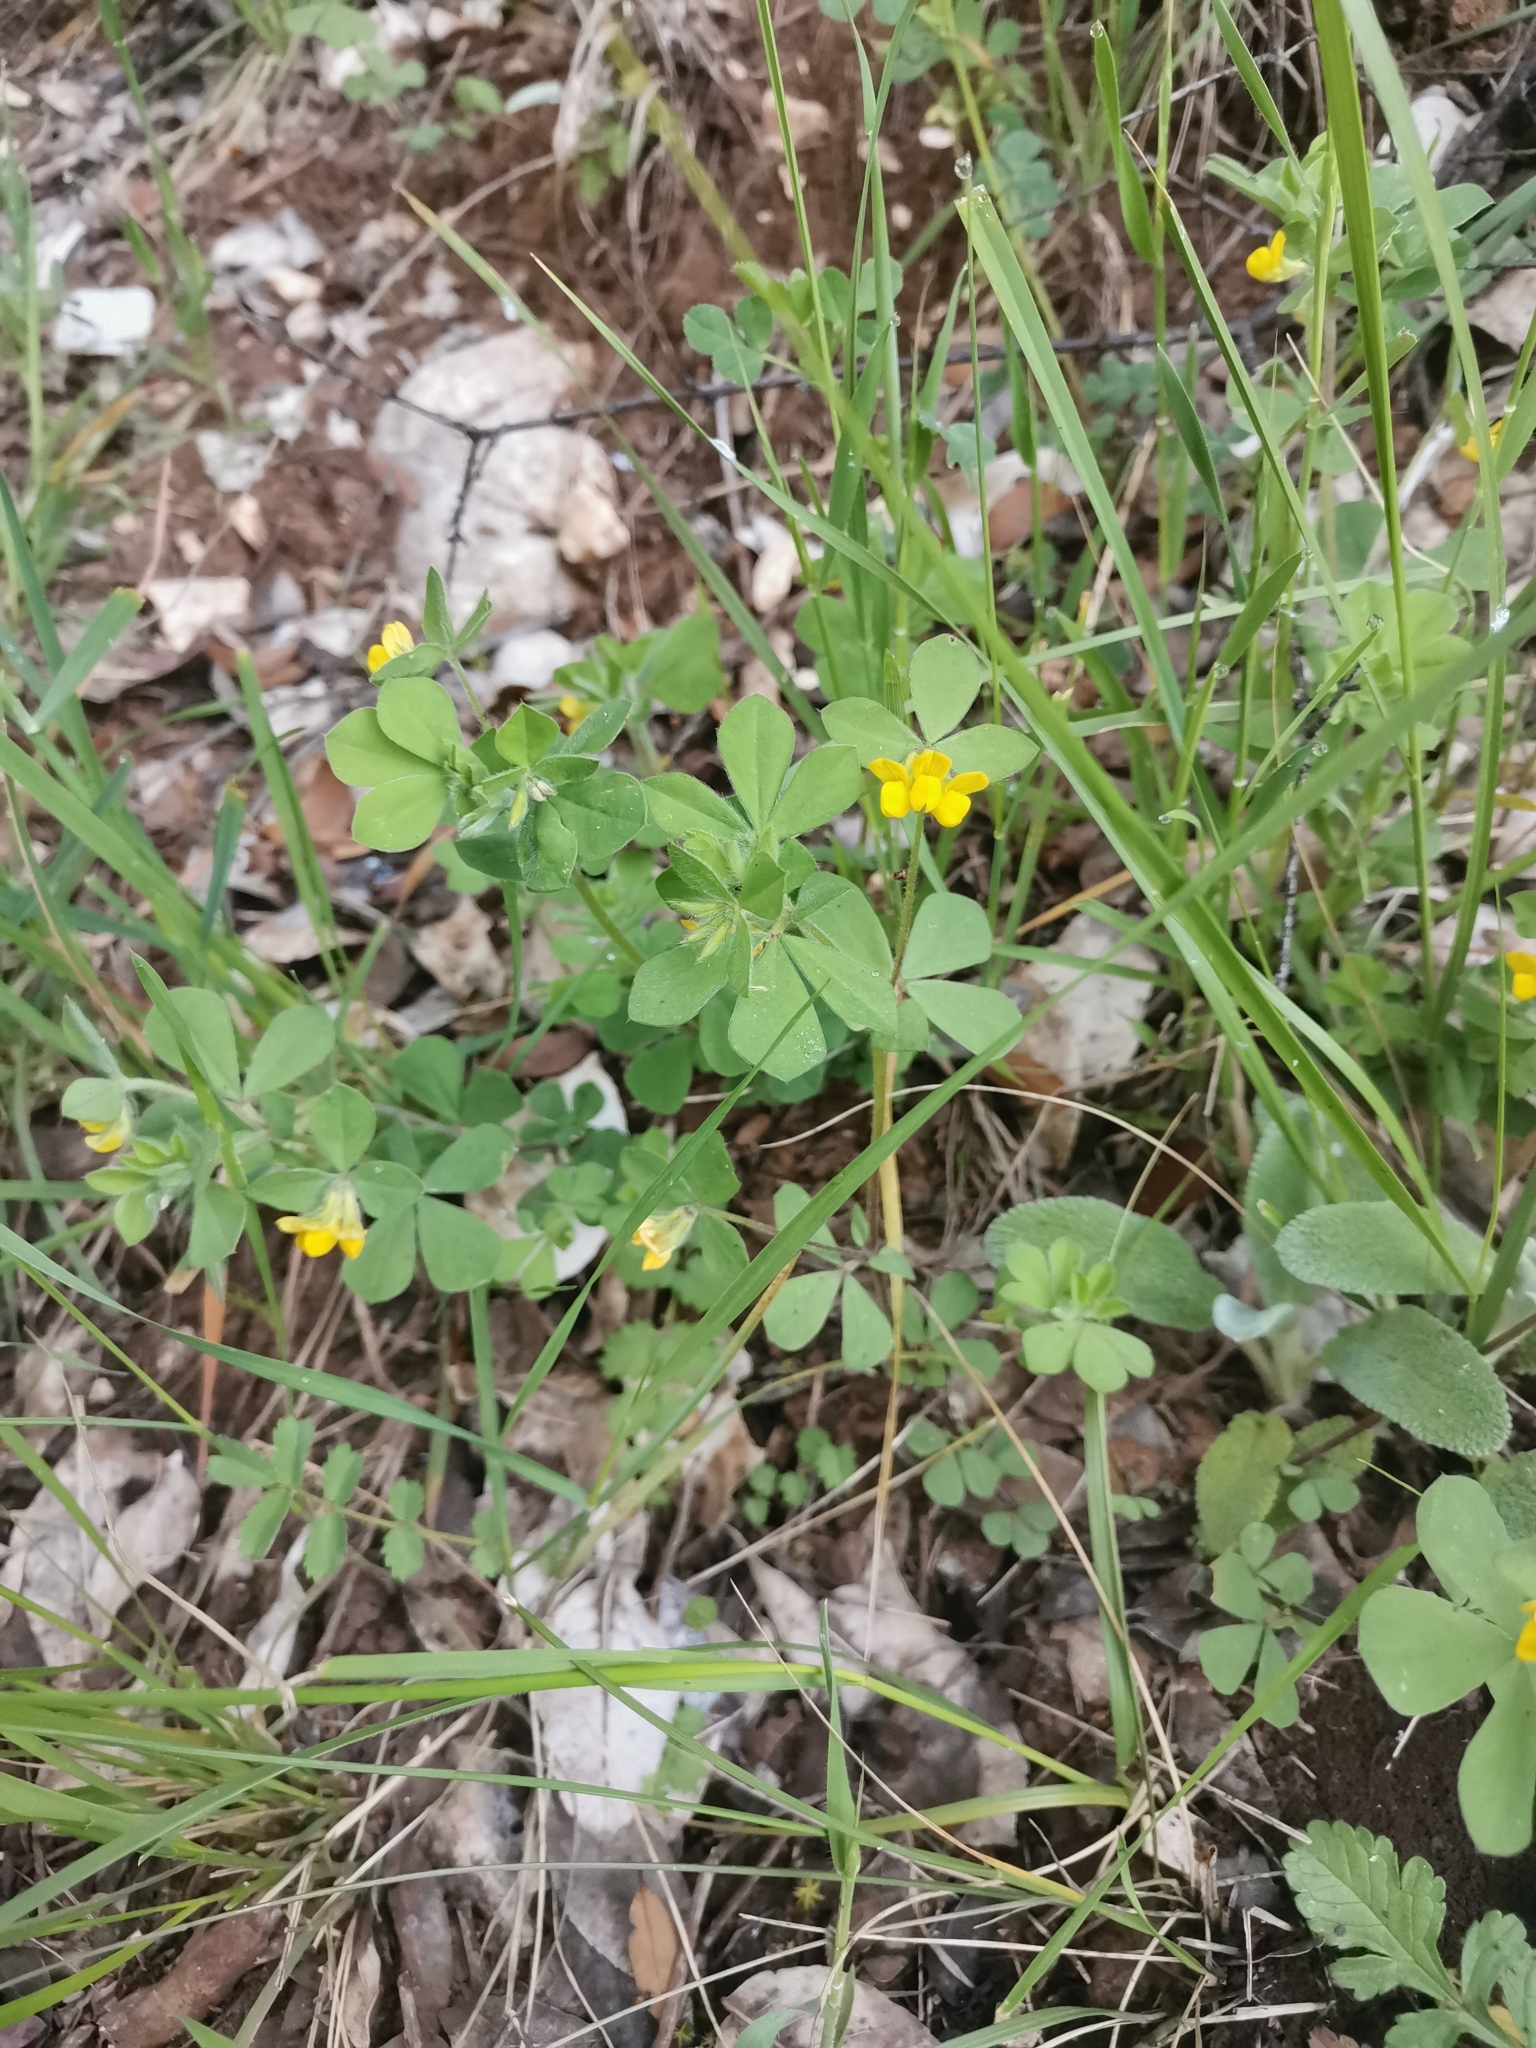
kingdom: Plantae
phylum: Tracheophyta
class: Magnoliopsida
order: Fabales
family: Fabaceae
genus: Lotus
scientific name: Lotus ornithopodioides
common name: Southern bird's-foot trefoil
